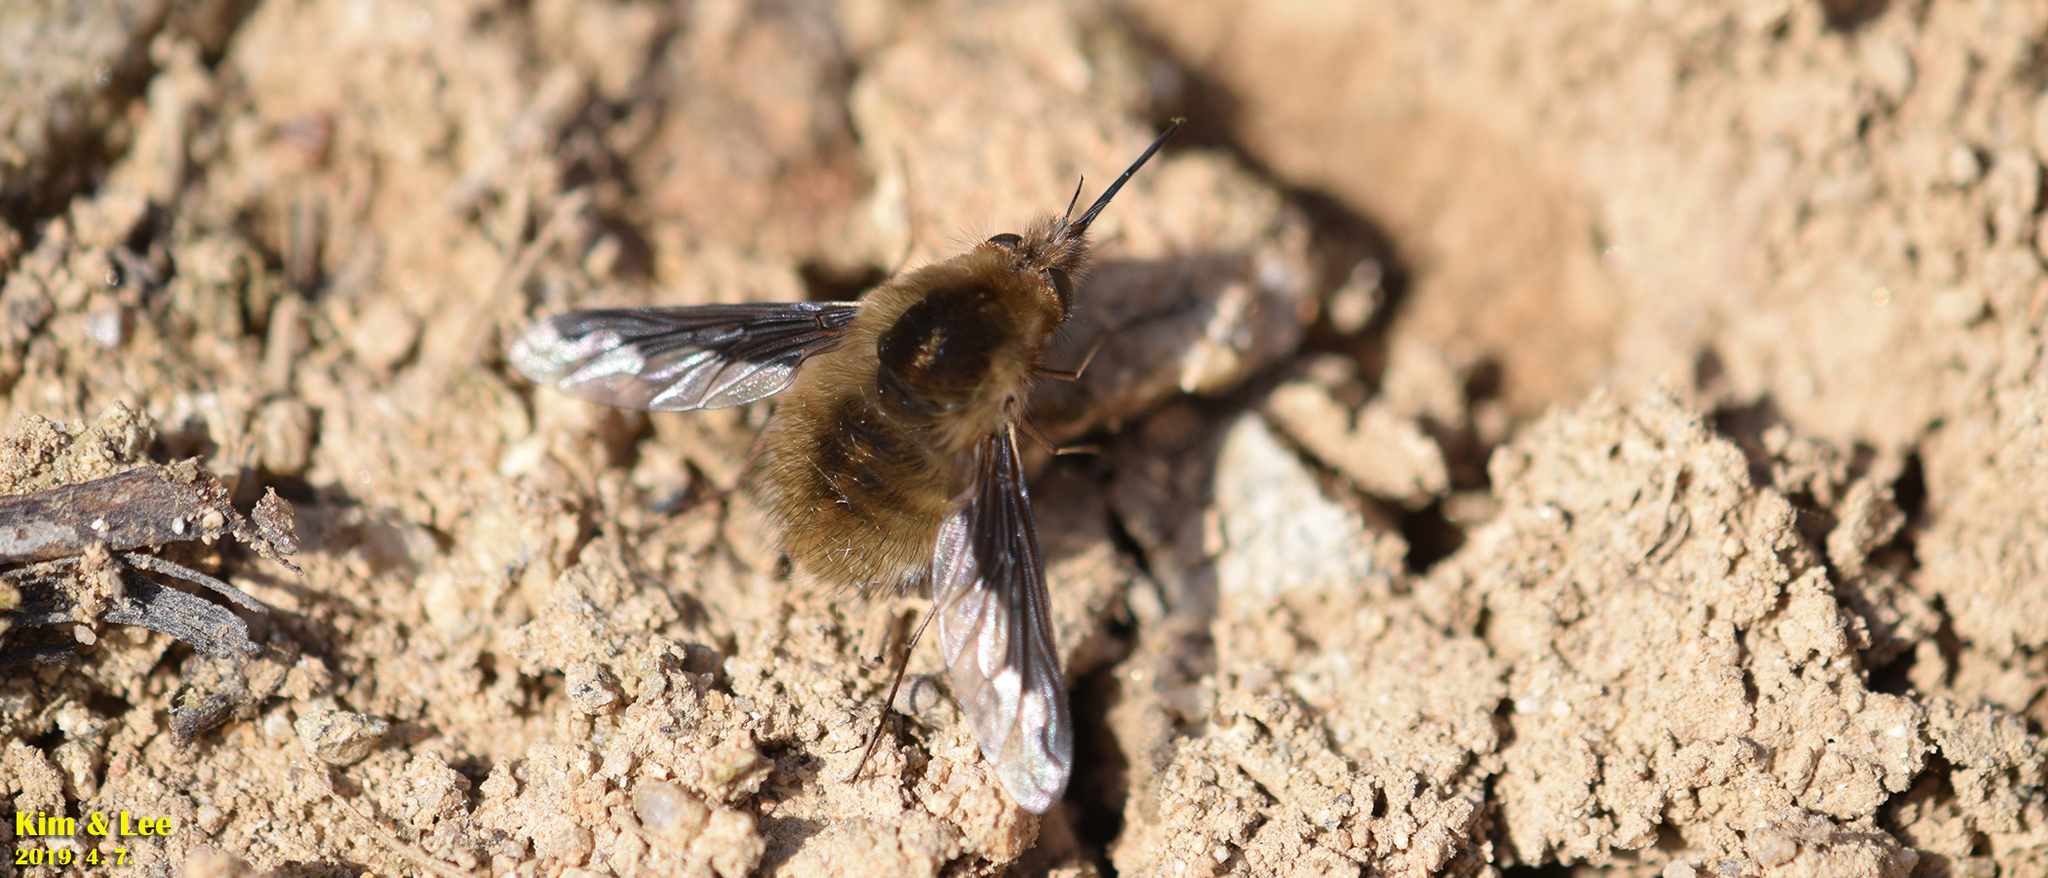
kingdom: Animalia
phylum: Arthropoda
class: Insecta
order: Diptera
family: Bombyliidae
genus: Bombylius
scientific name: Bombylius major
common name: Bee fly
